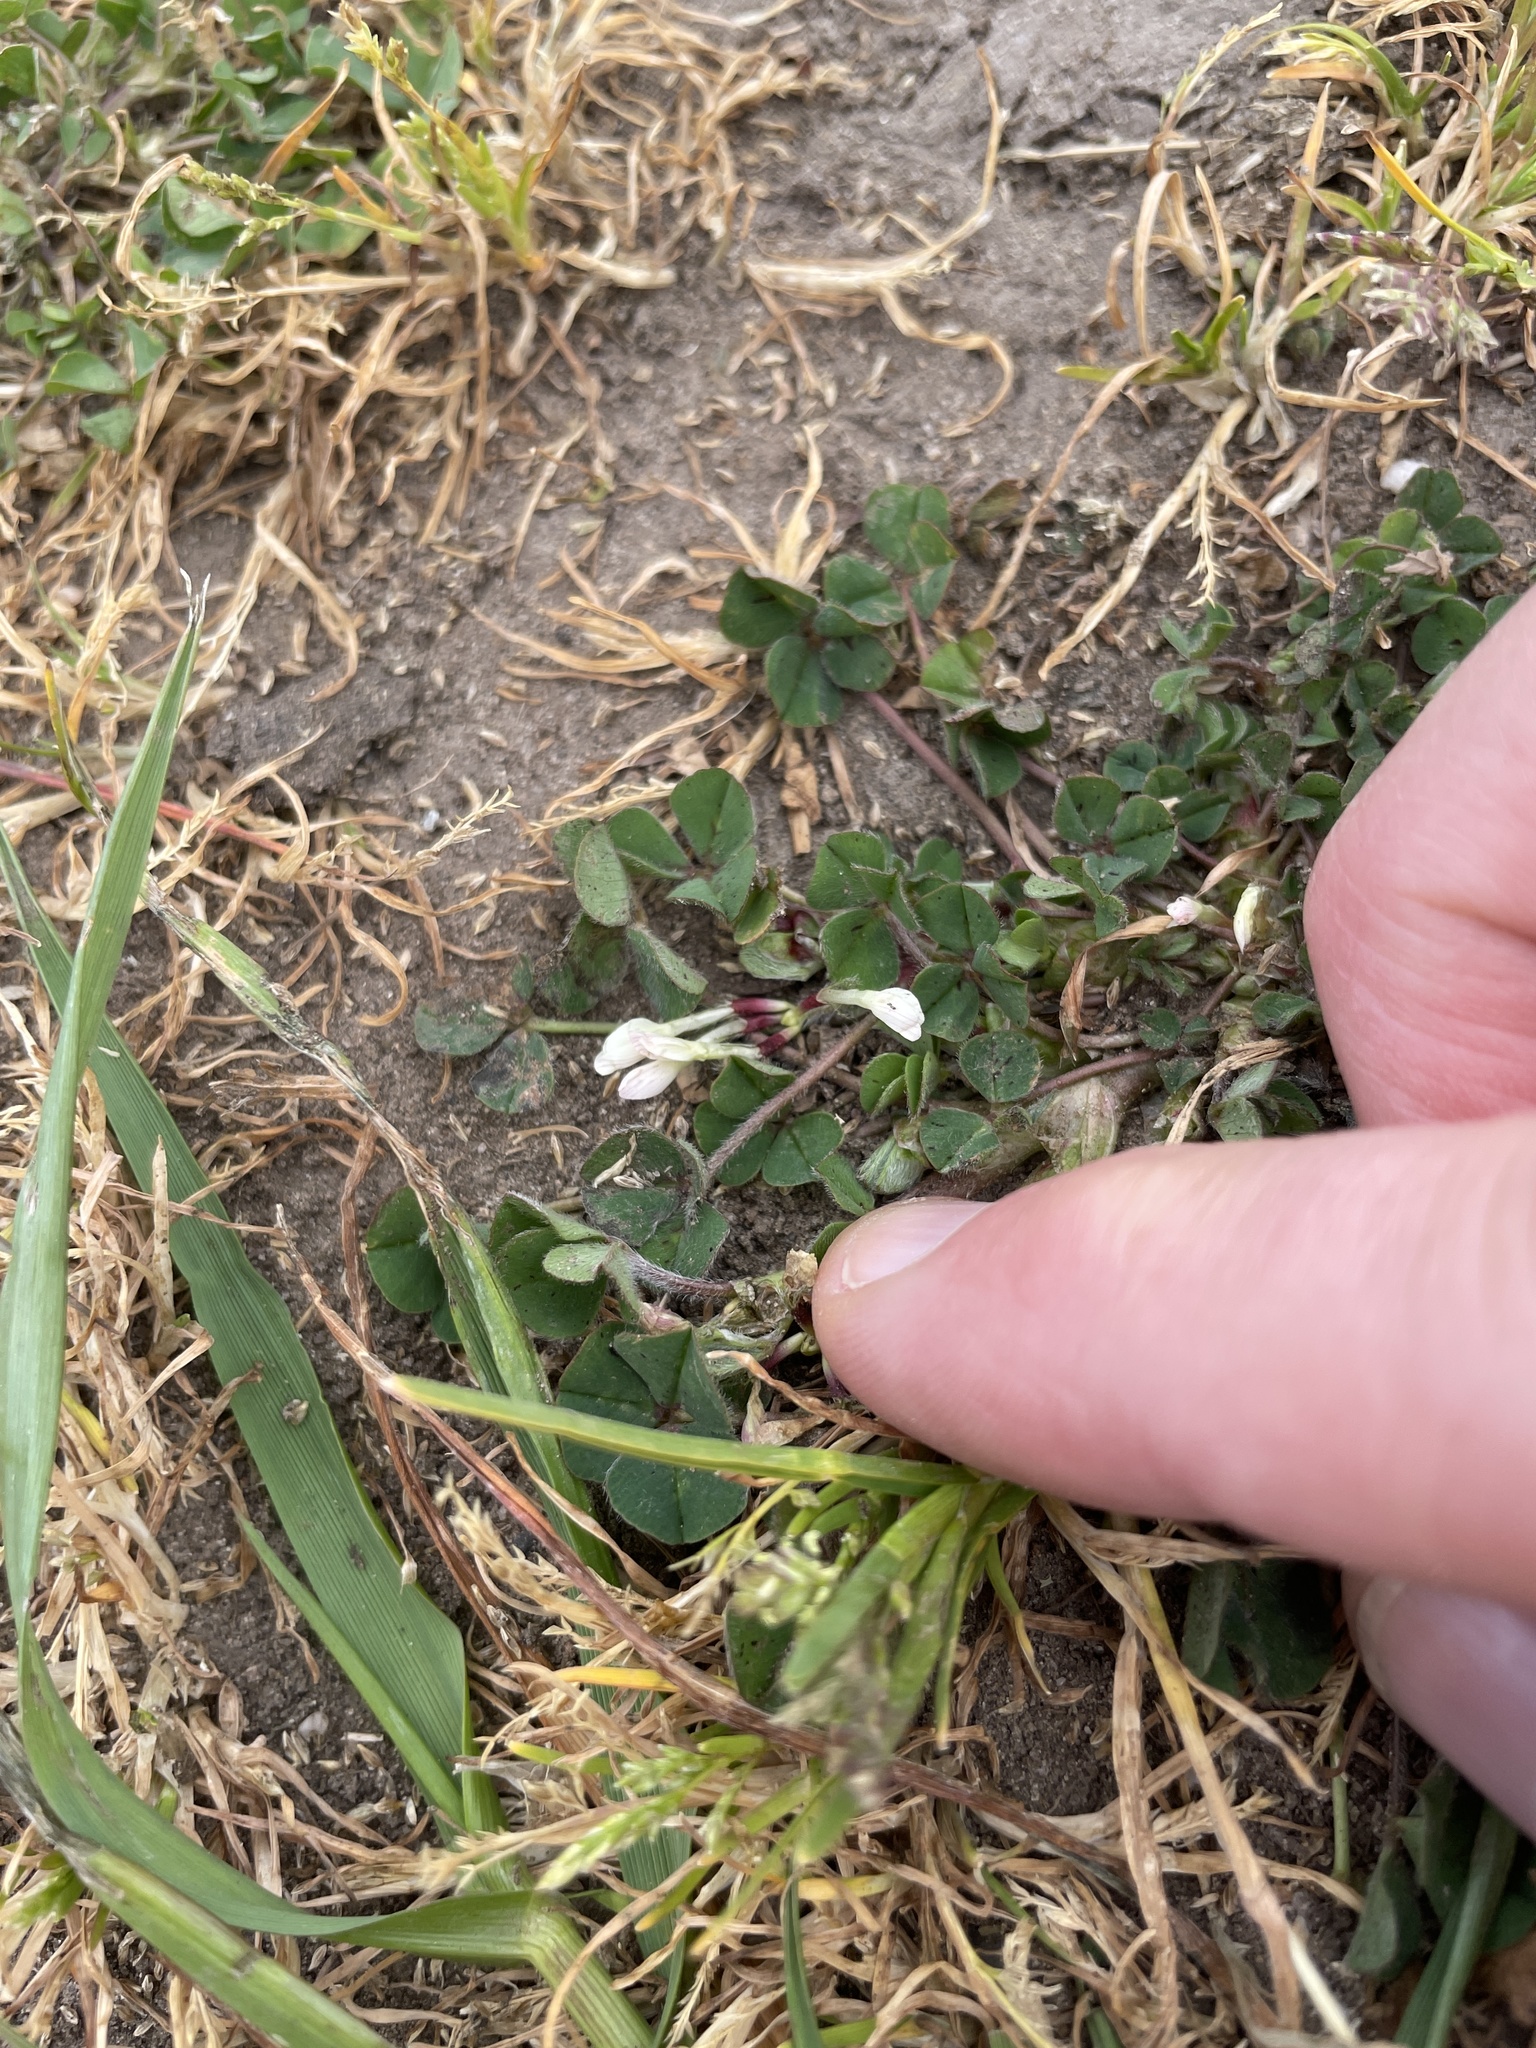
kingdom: Plantae
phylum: Tracheophyta
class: Magnoliopsida
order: Fabales
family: Fabaceae
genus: Trifolium
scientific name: Trifolium subterraneum
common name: Subterranean clover
